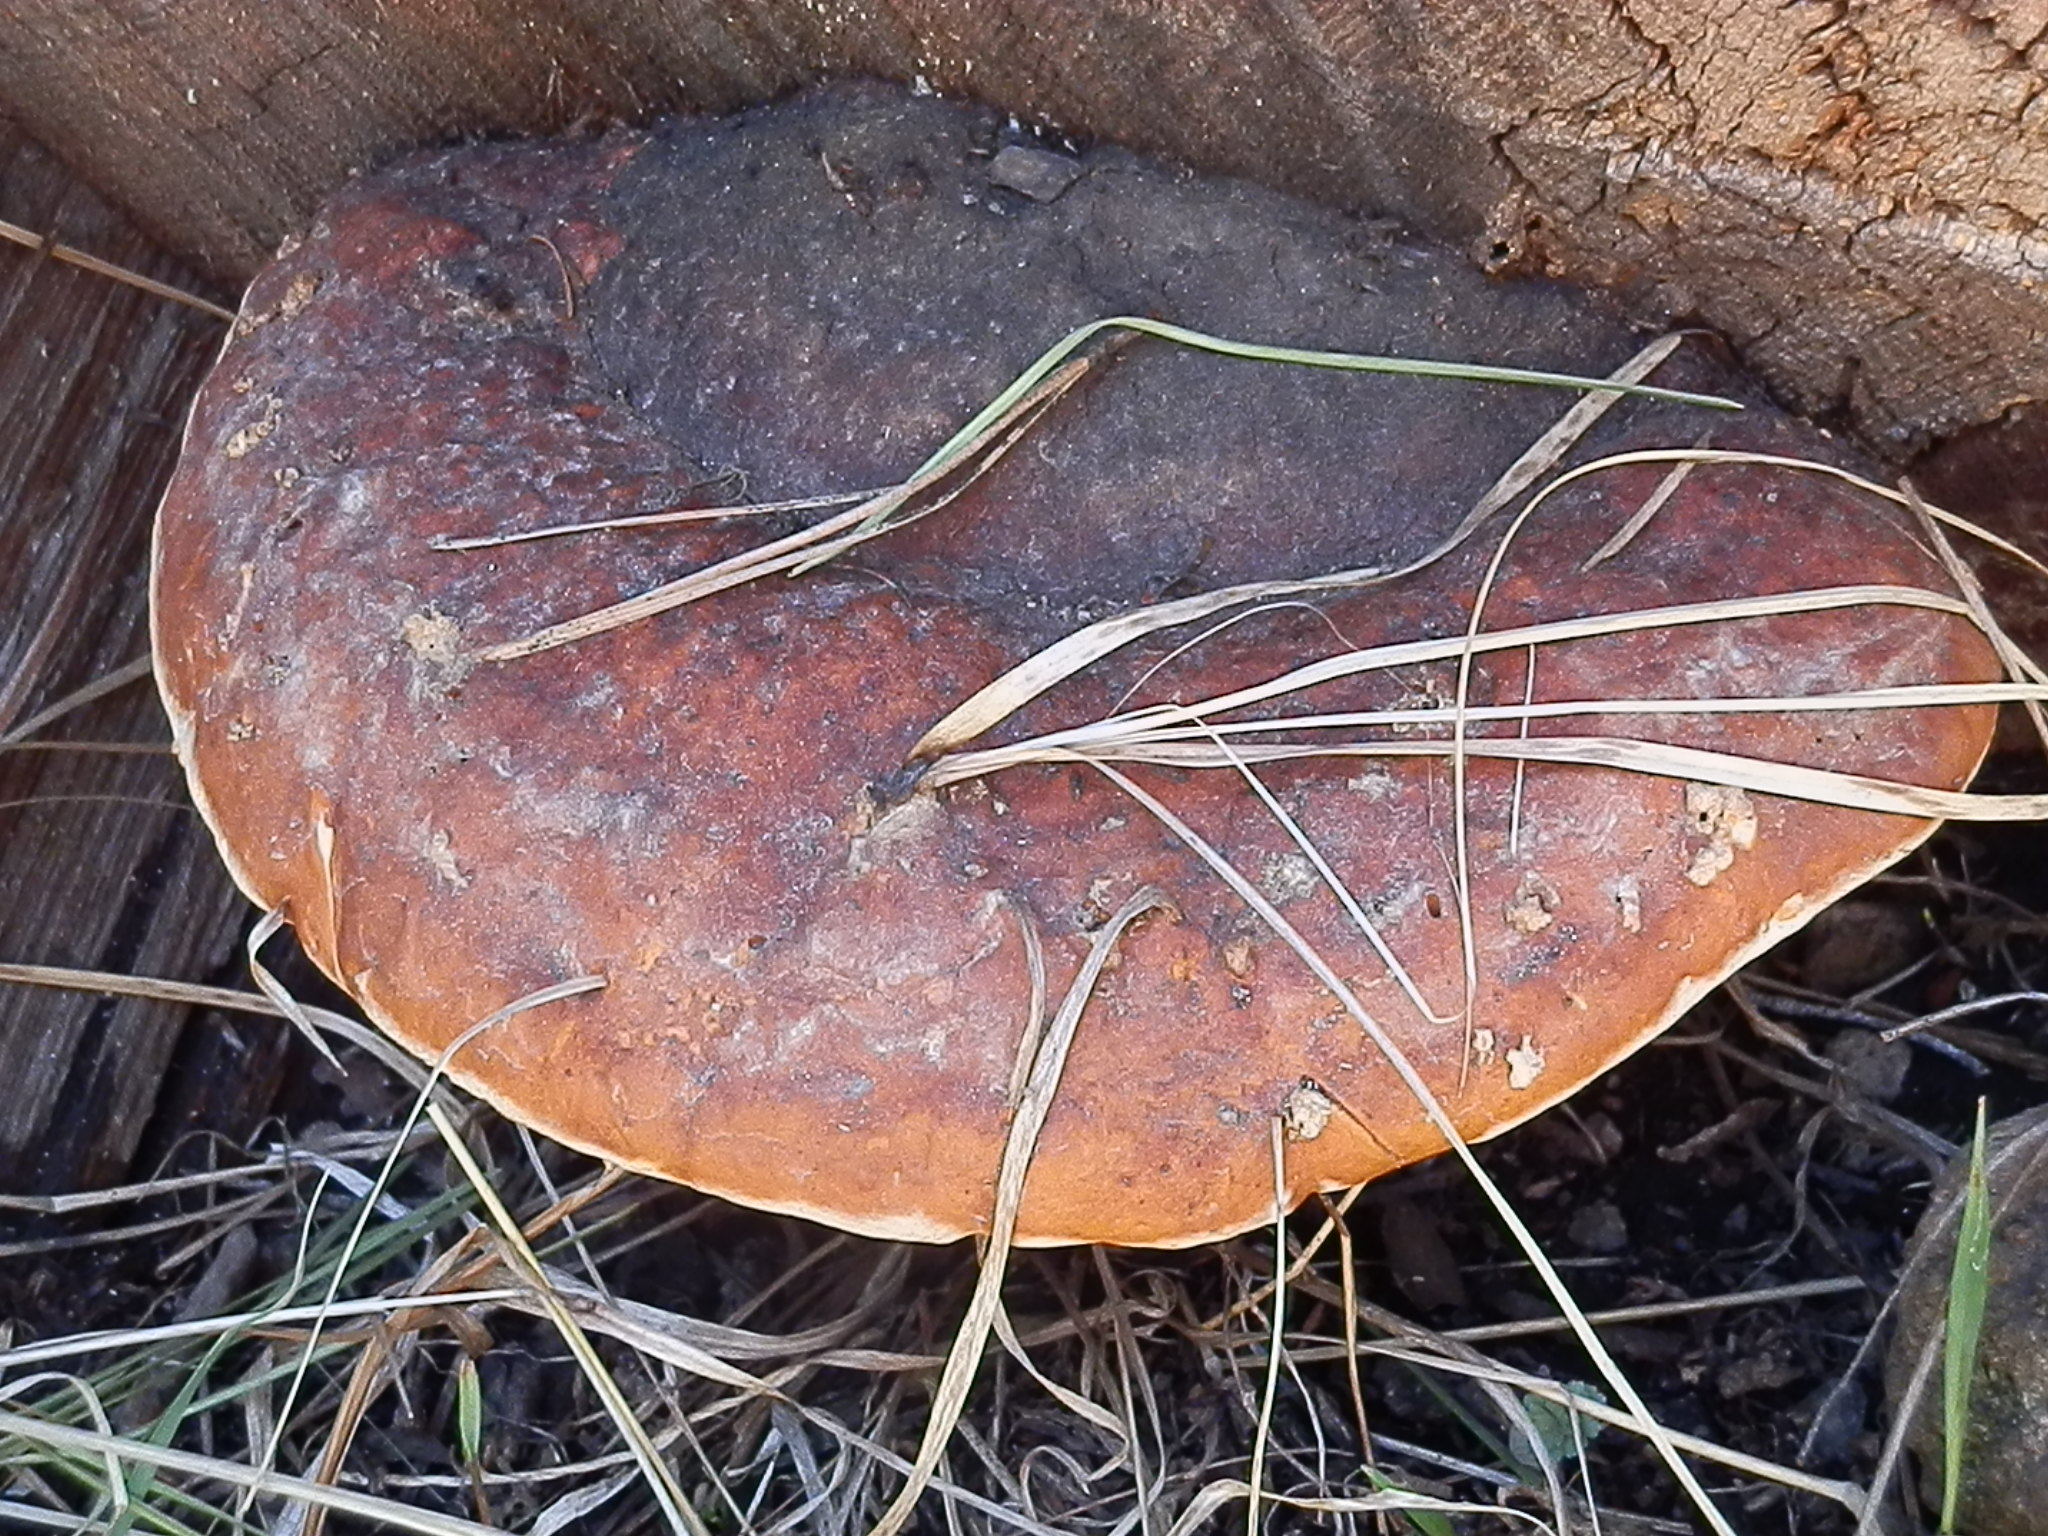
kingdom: Fungi
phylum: Basidiomycota
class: Agaricomycetes
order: Polyporales
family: Fomitopsidaceae
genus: Fomitopsis
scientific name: Fomitopsis schrenkii
